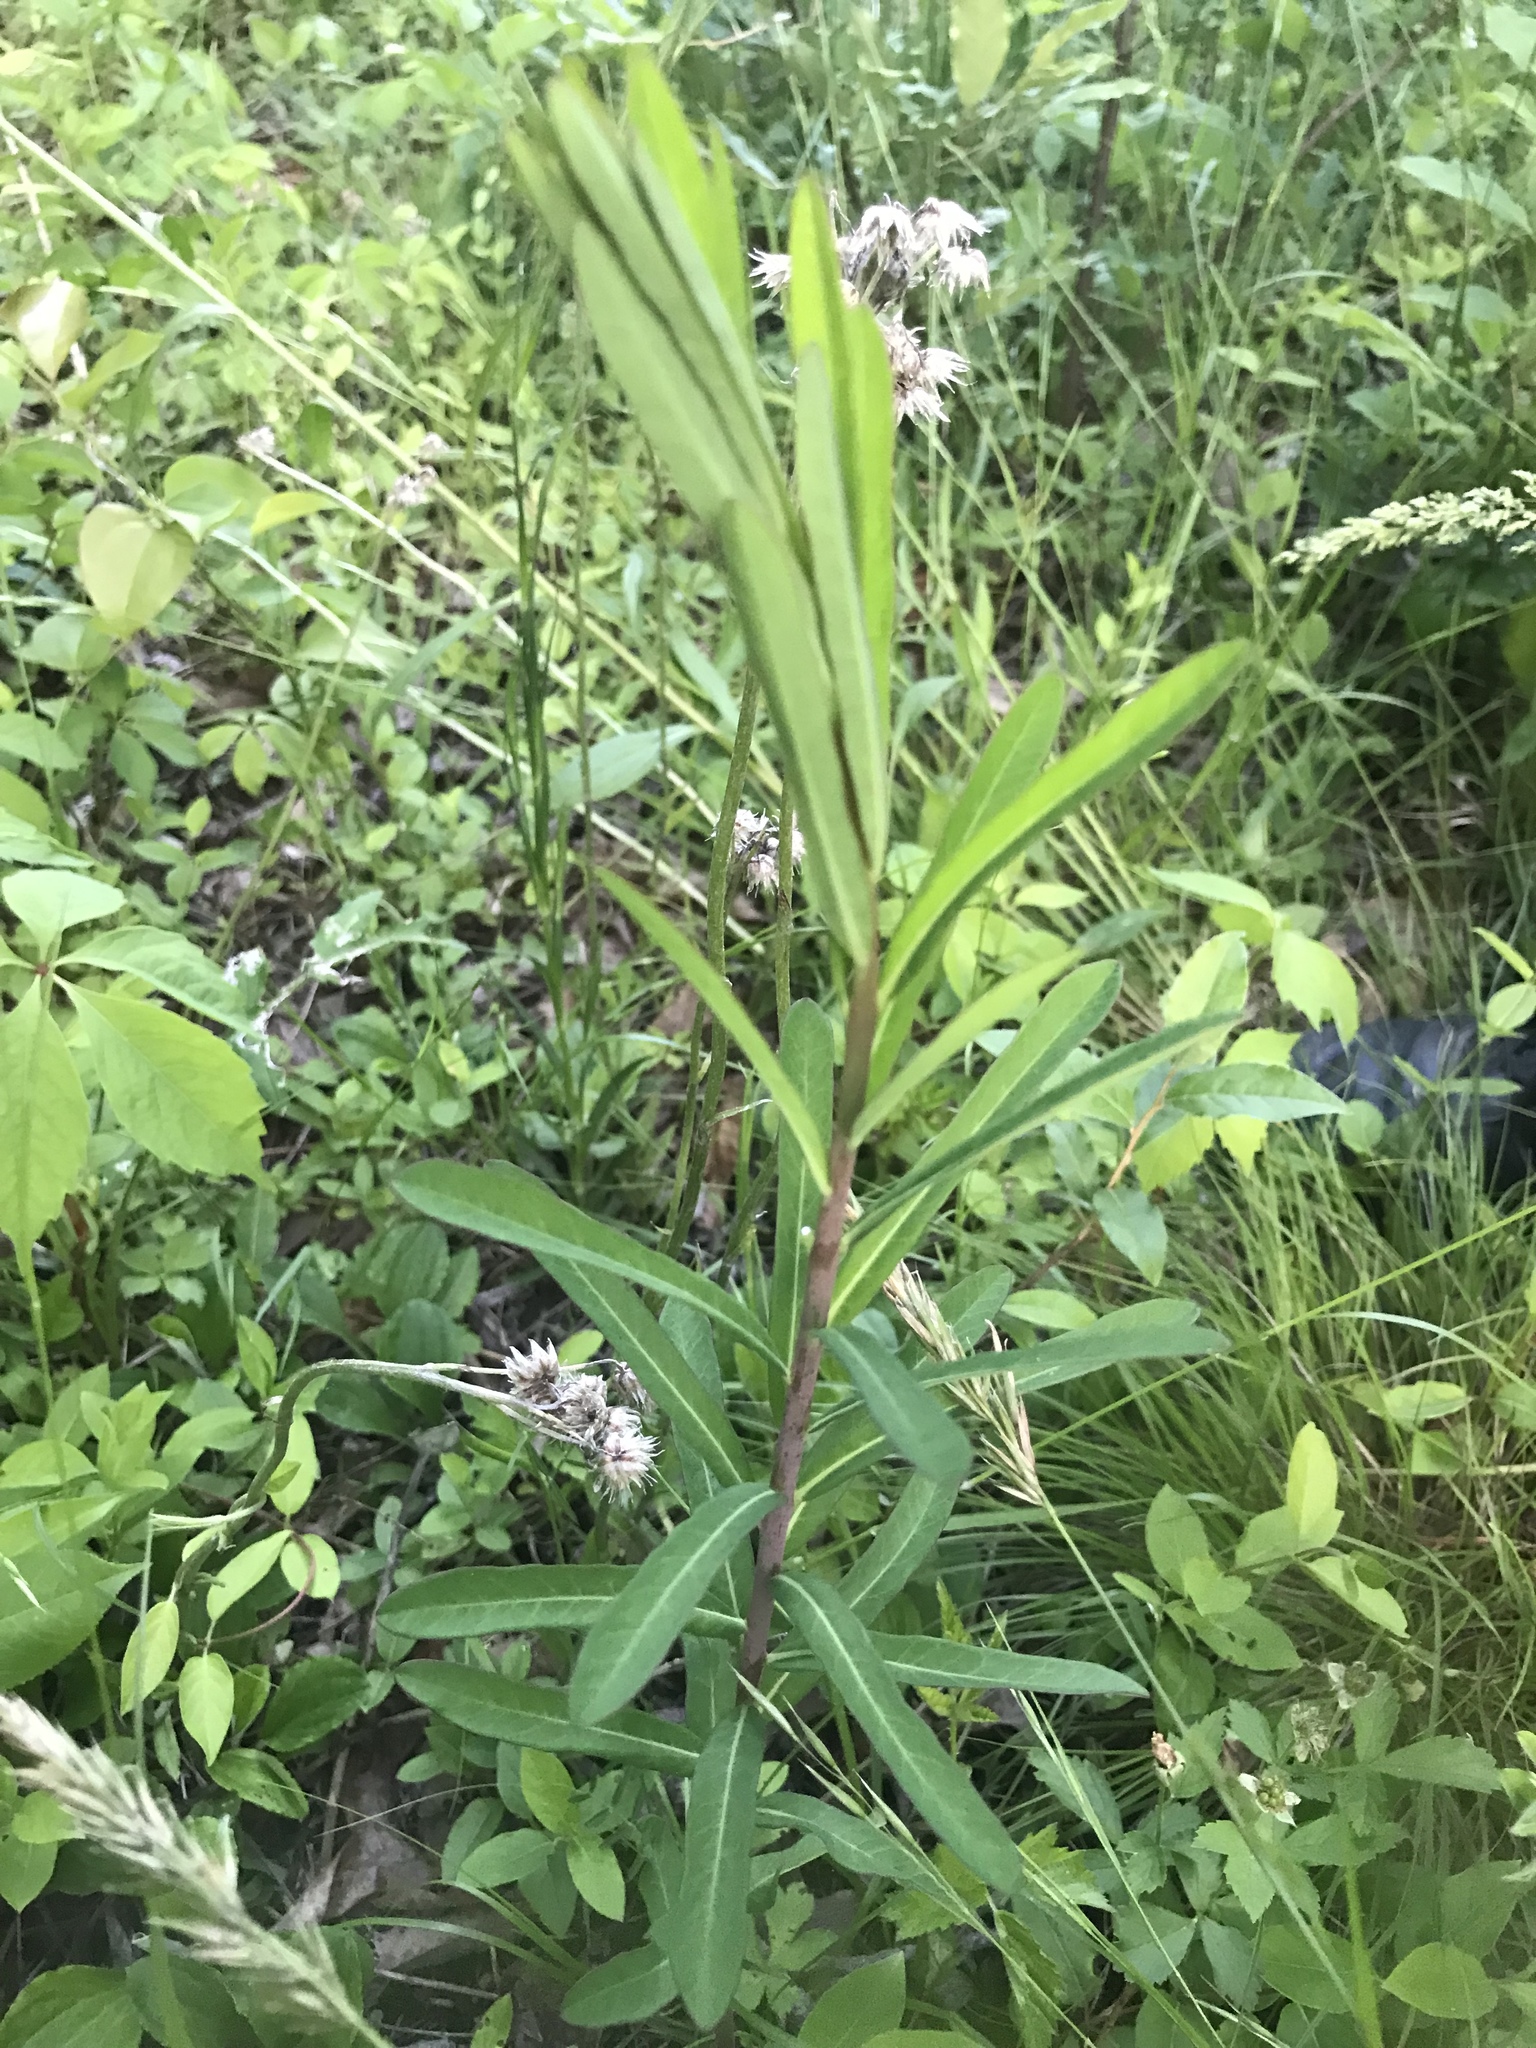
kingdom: Plantae
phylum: Tracheophyta
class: Magnoliopsida
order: Malpighiales
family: Euphorbiaceae
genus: Euphorbia
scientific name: Euphorbia corollata
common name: Flowering spurge
